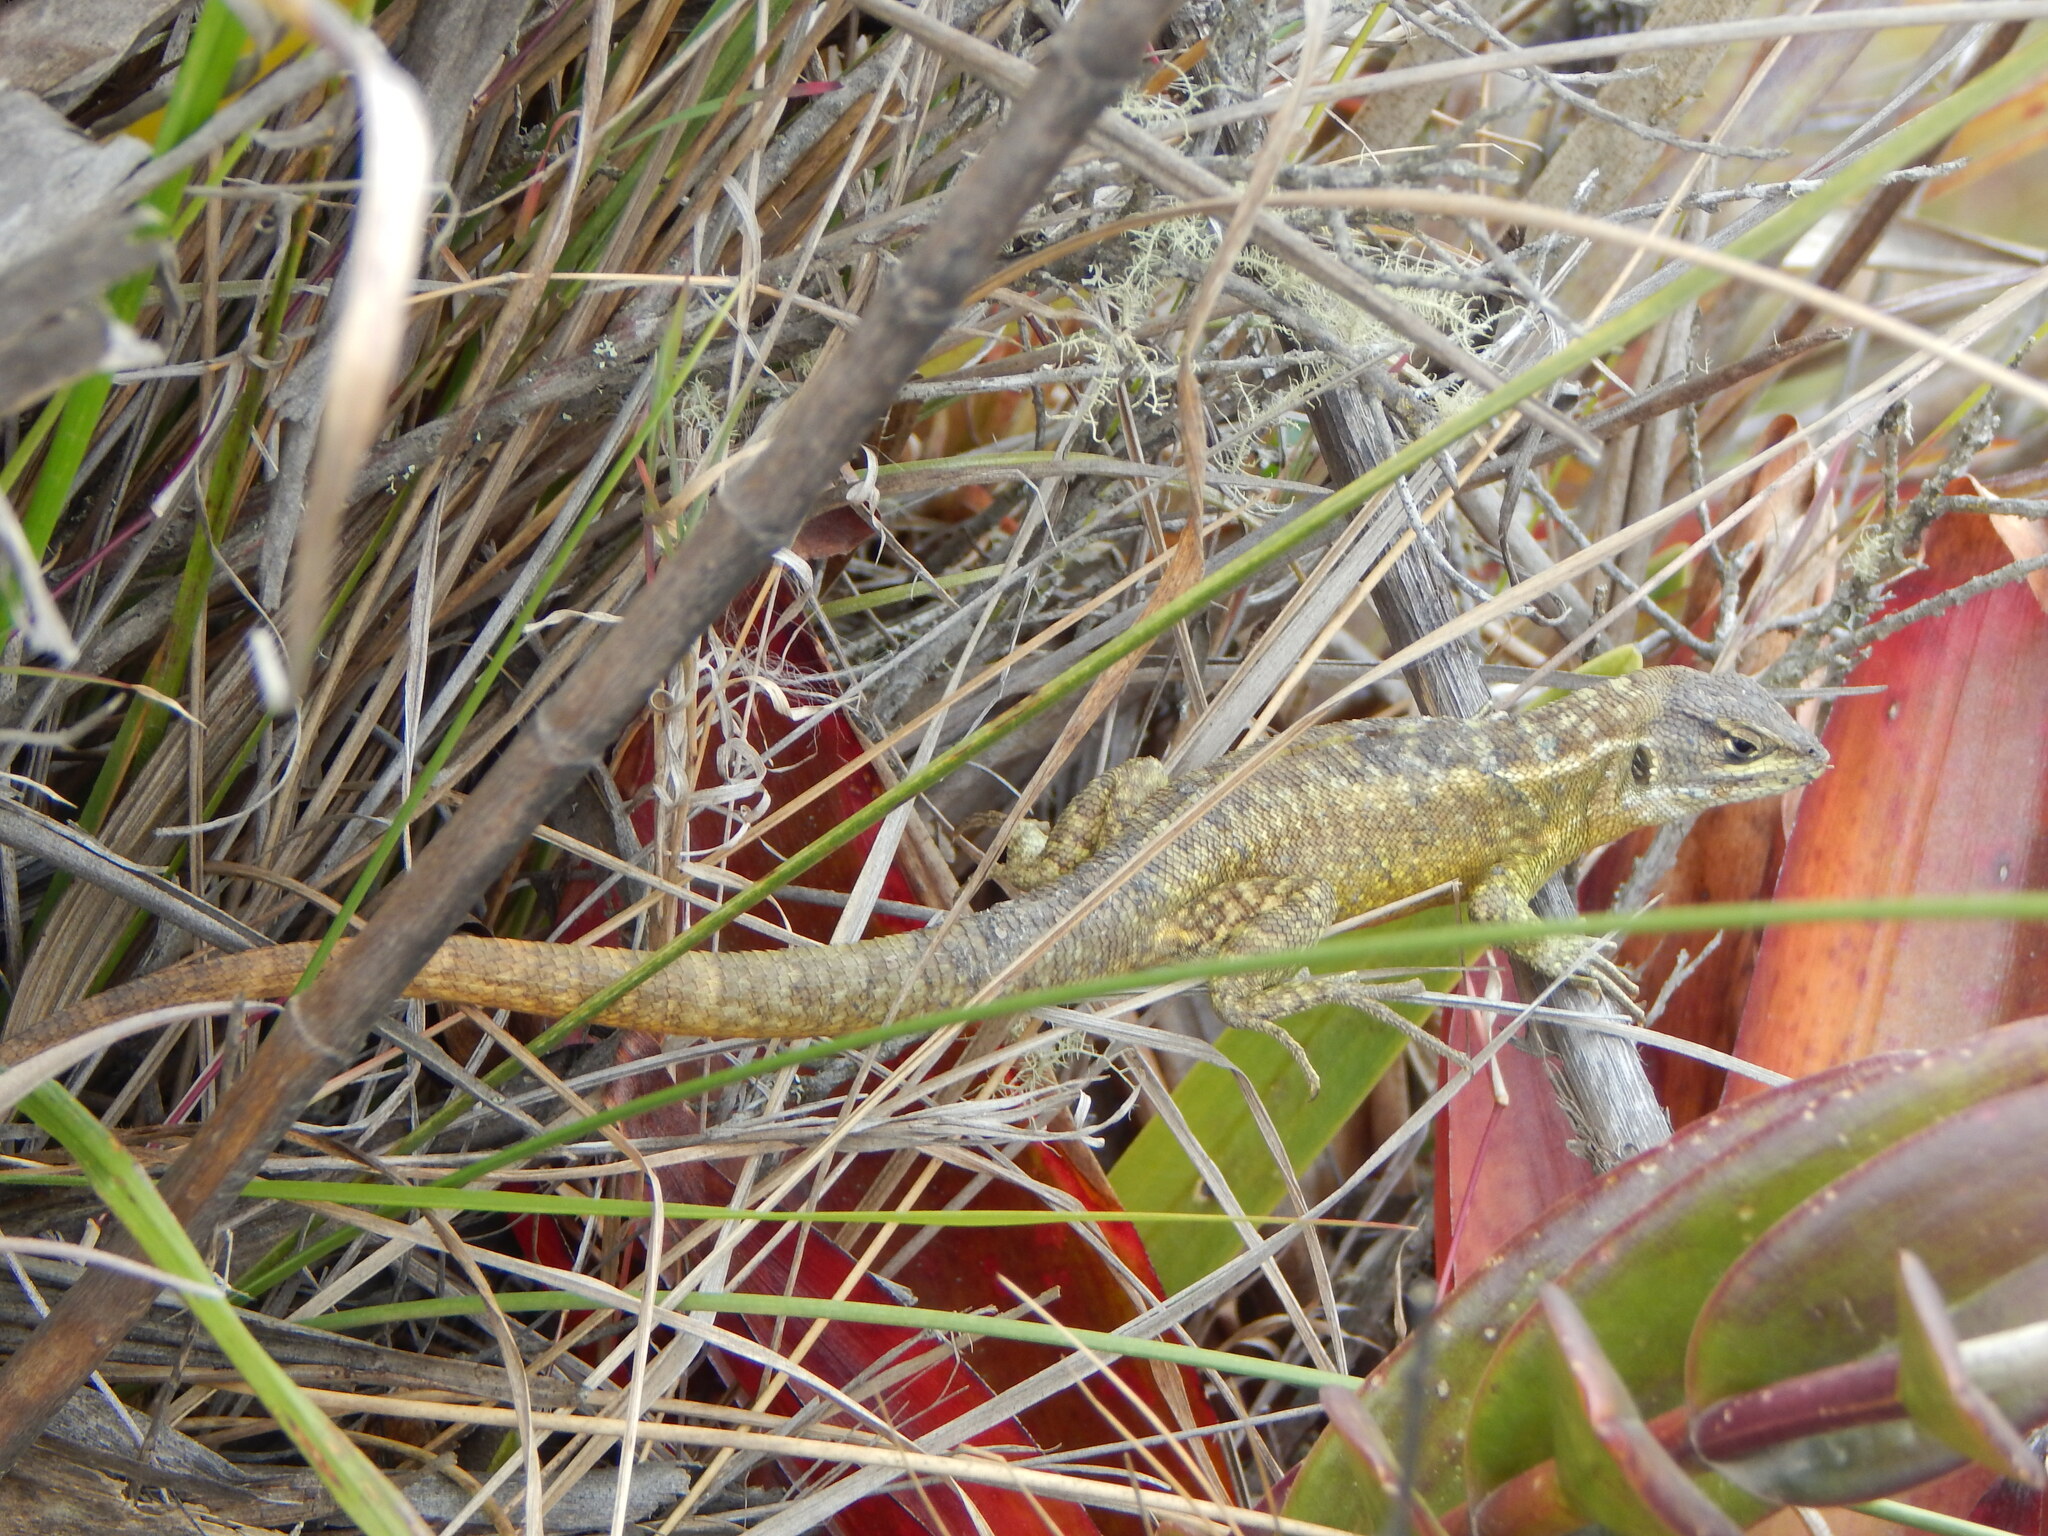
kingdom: Animalia
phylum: Chordata
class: Squamata
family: Tropiduridae
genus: Stenocercus
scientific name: Stenocercus guentheri
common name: Günther's whorltail iguana
